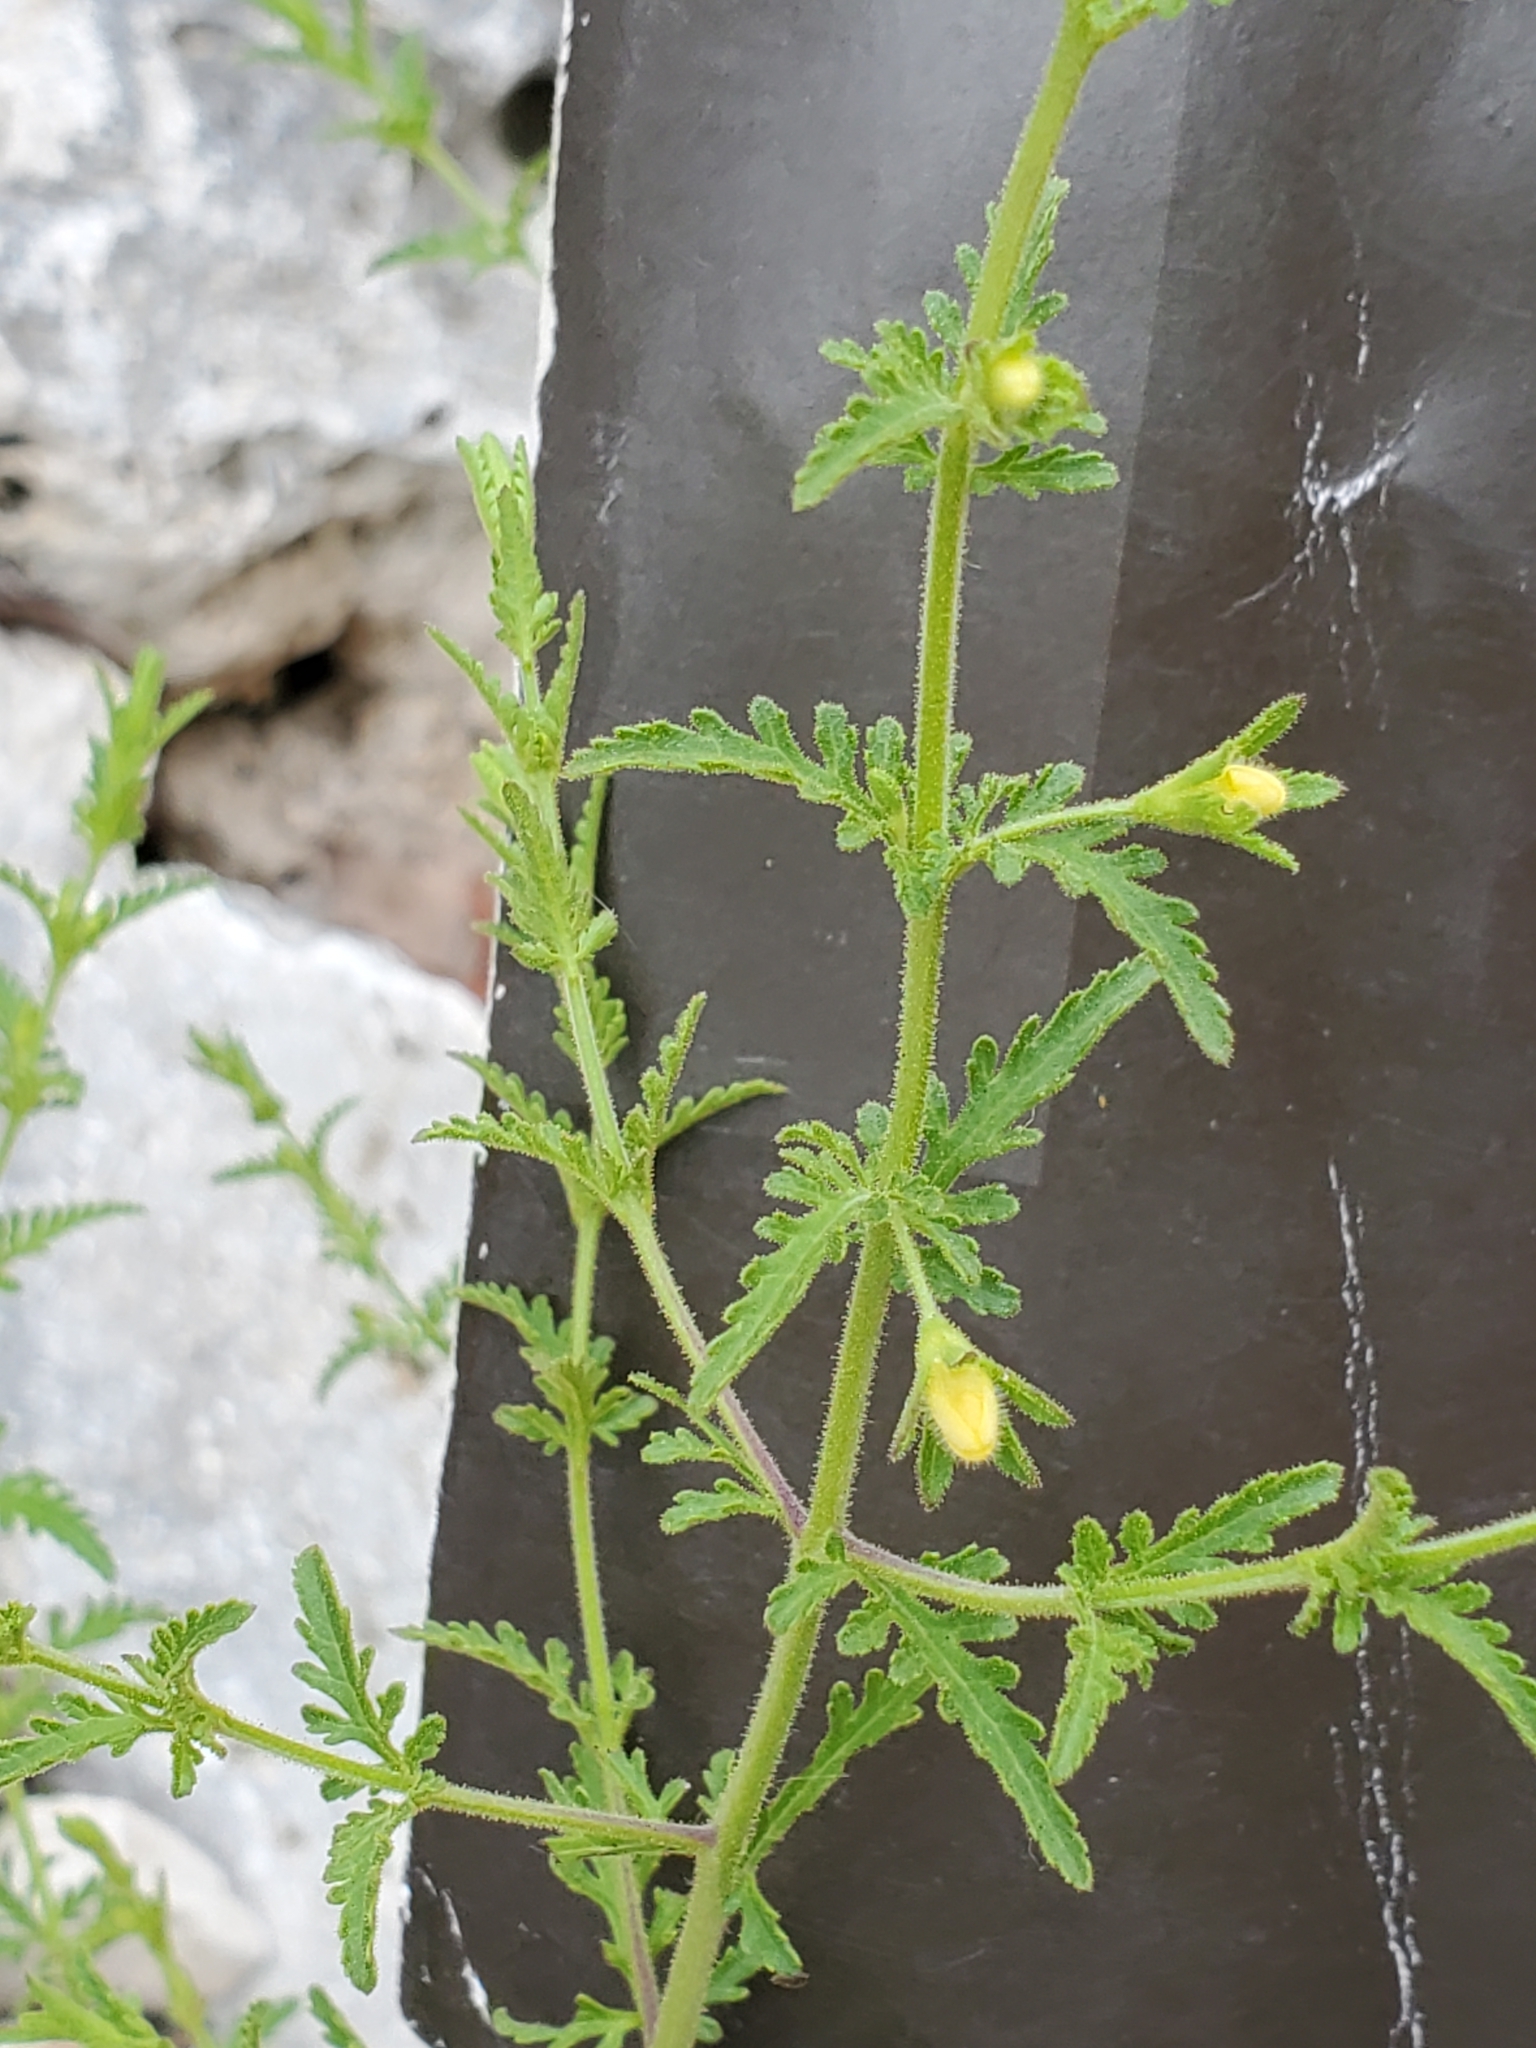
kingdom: Plantae
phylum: Tracheophyta
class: Magnoliopsida
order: Lamiales
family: Orobanchaceae
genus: Seymeria
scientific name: Seymeria bipinnatisecta
